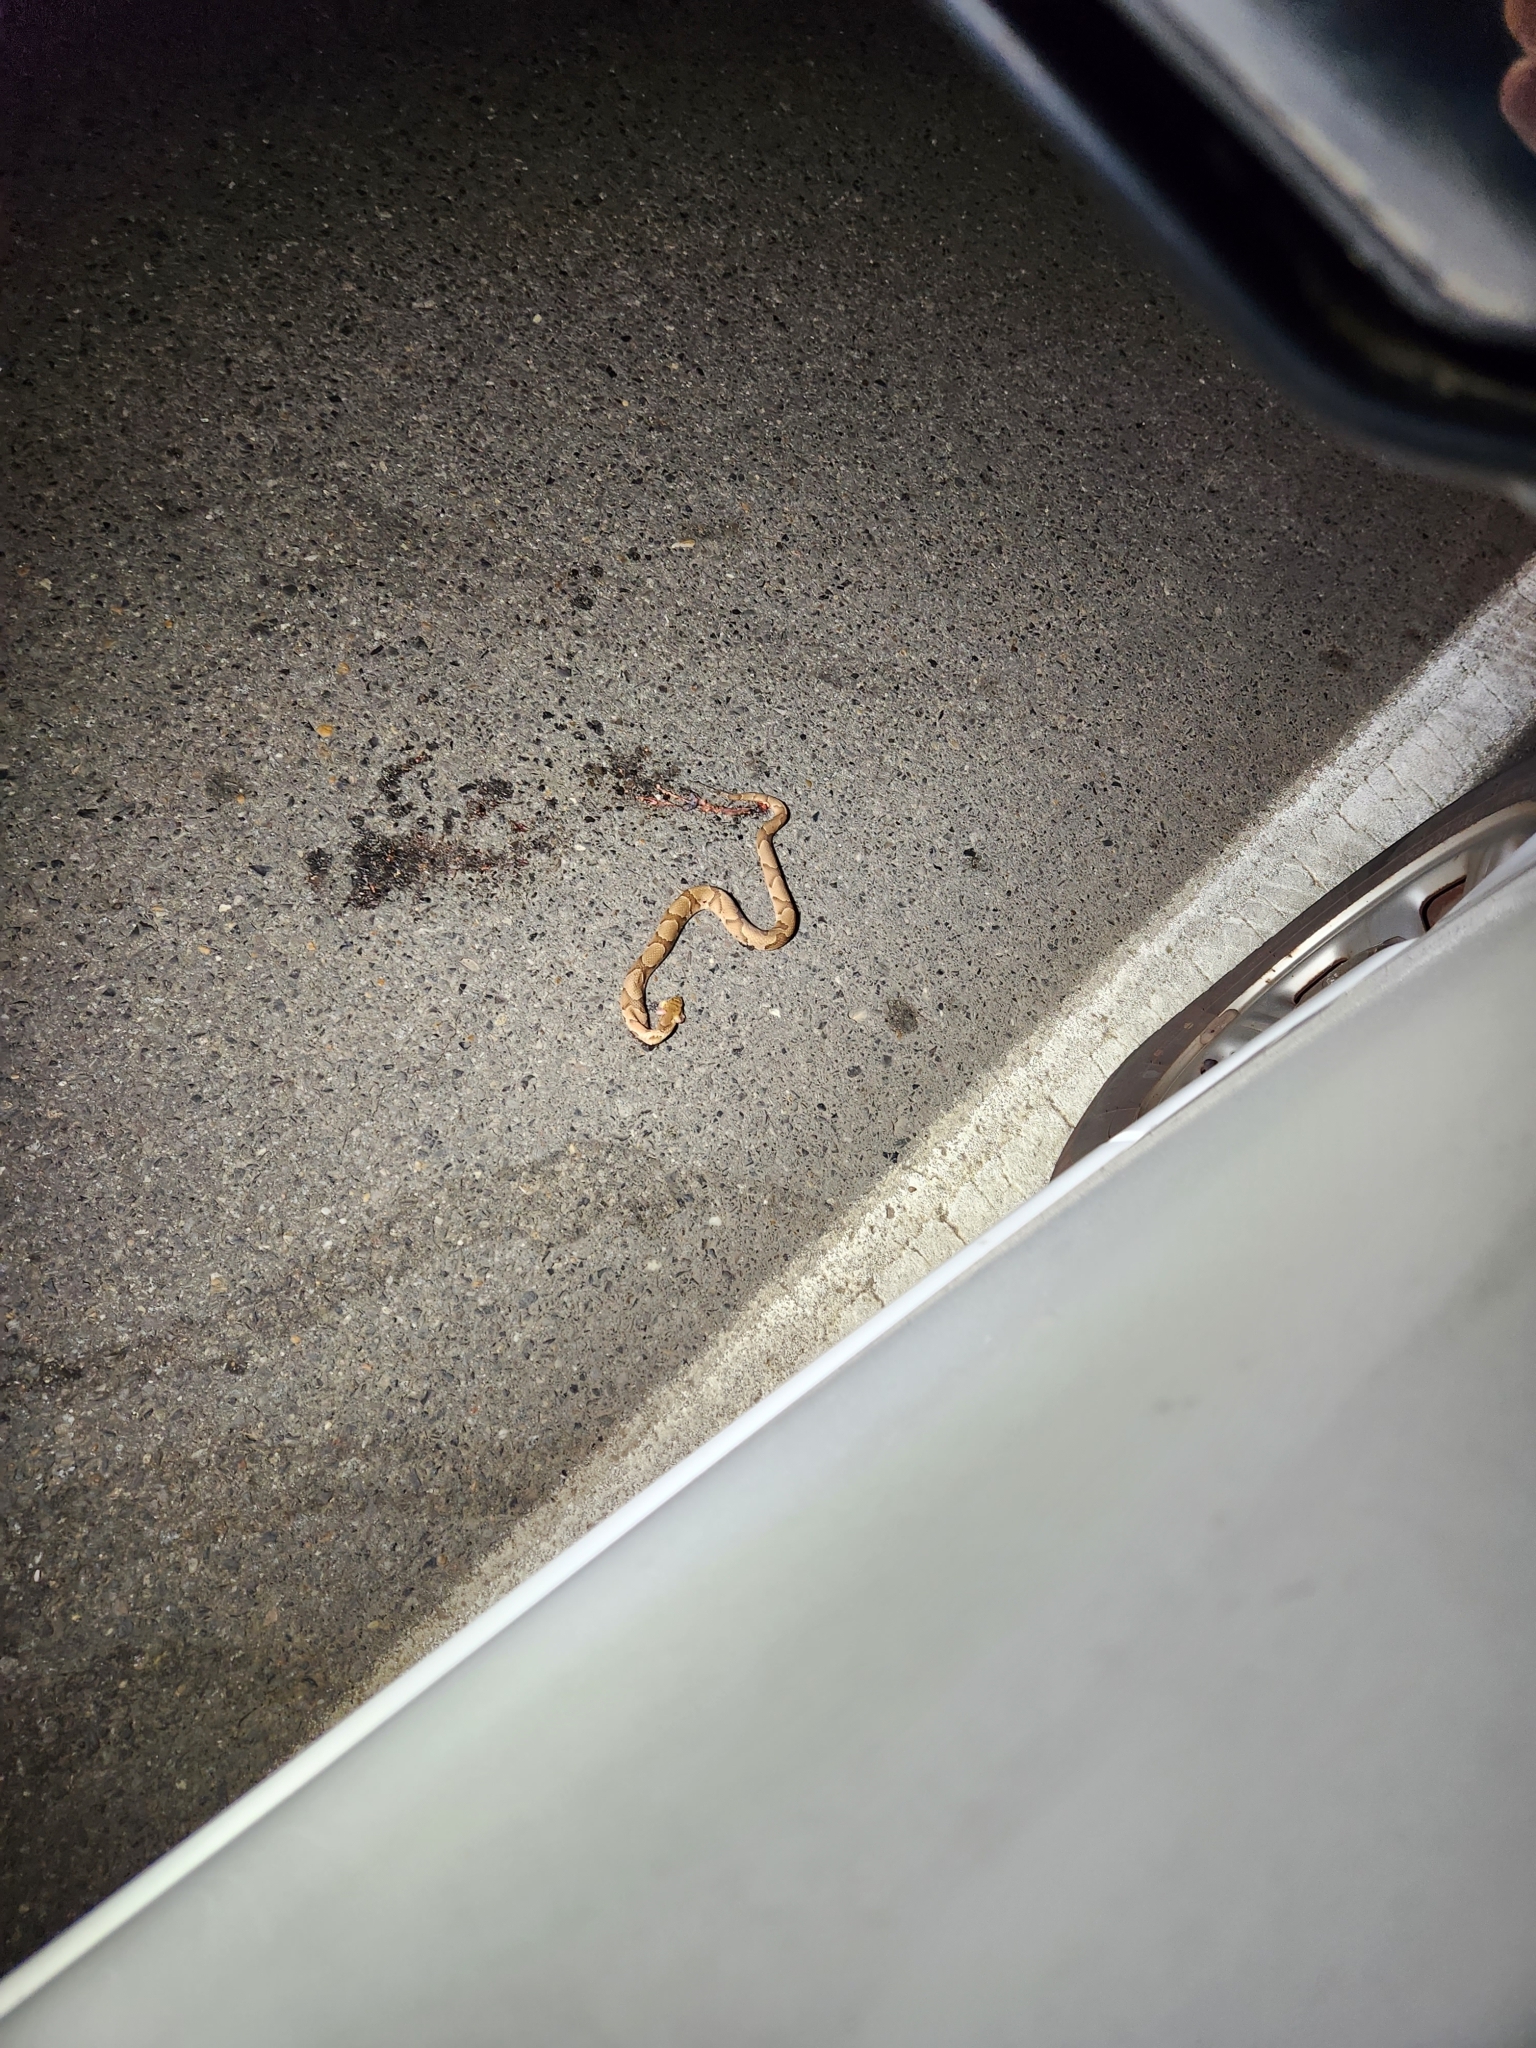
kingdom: Animalia
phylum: Chordata
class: Squamata
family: Viperidae
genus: Agkistrodon
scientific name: Agkistrodon contortrix
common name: Northern copperhead
